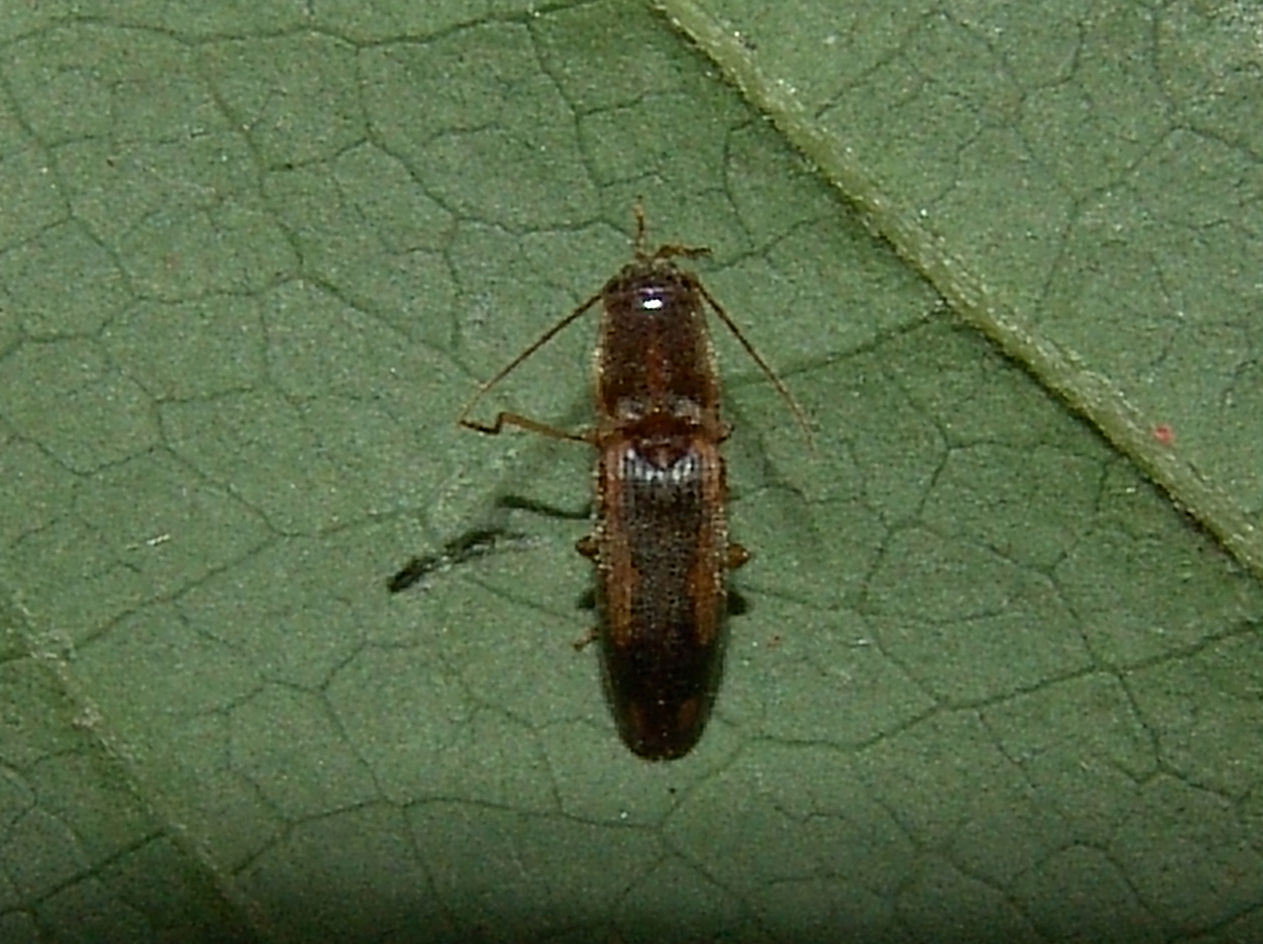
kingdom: Animalia
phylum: Arthropoda
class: Insecta
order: Coleoptera
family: Elateridae
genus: Monocrepidius
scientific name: Monocrepidius
